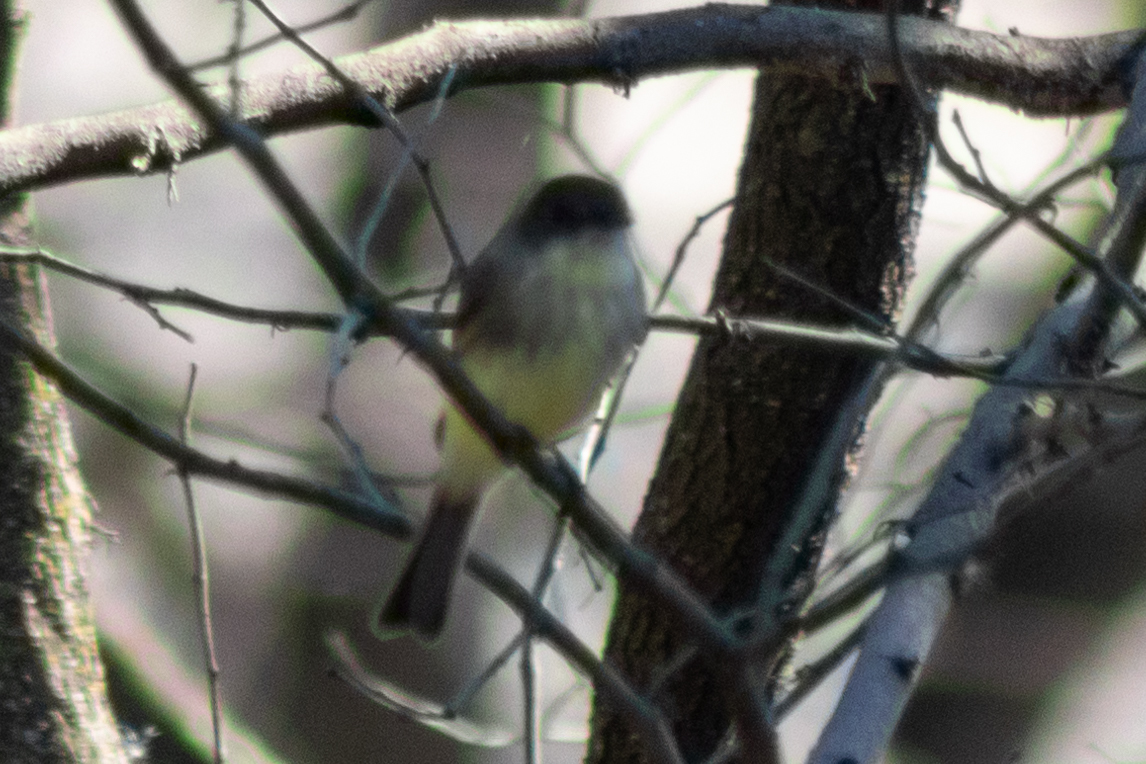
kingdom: Animalia
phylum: Chordata
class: Aves
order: Passeriformes
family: Tyrannidae
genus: Sayornis
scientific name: Sayornis phoebe
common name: Eastern phoebe
